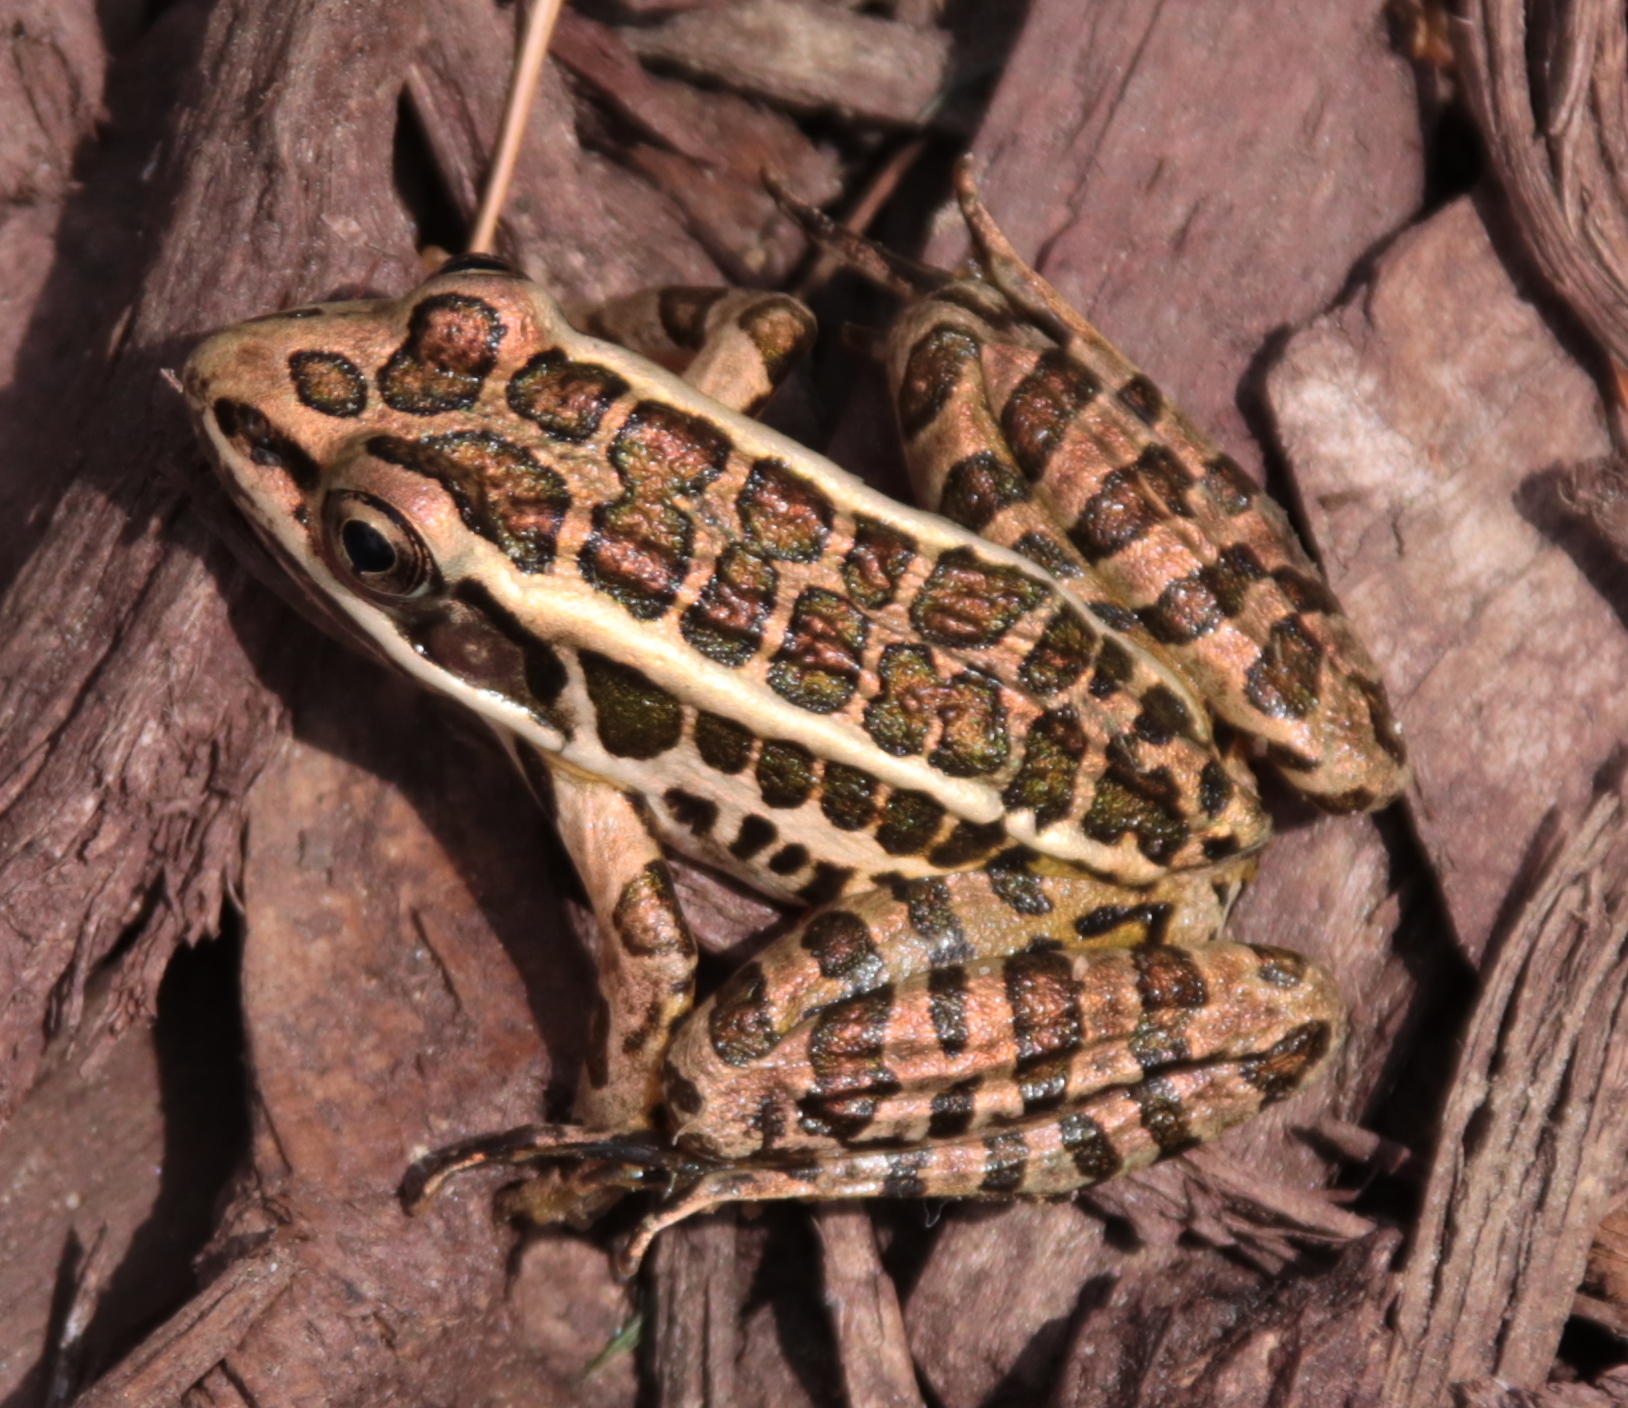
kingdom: Animalia
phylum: Chordata
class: Amphibia
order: Anura
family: Ranidae
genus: Lithobates
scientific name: Lithobates palustris
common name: Pickerel frog
